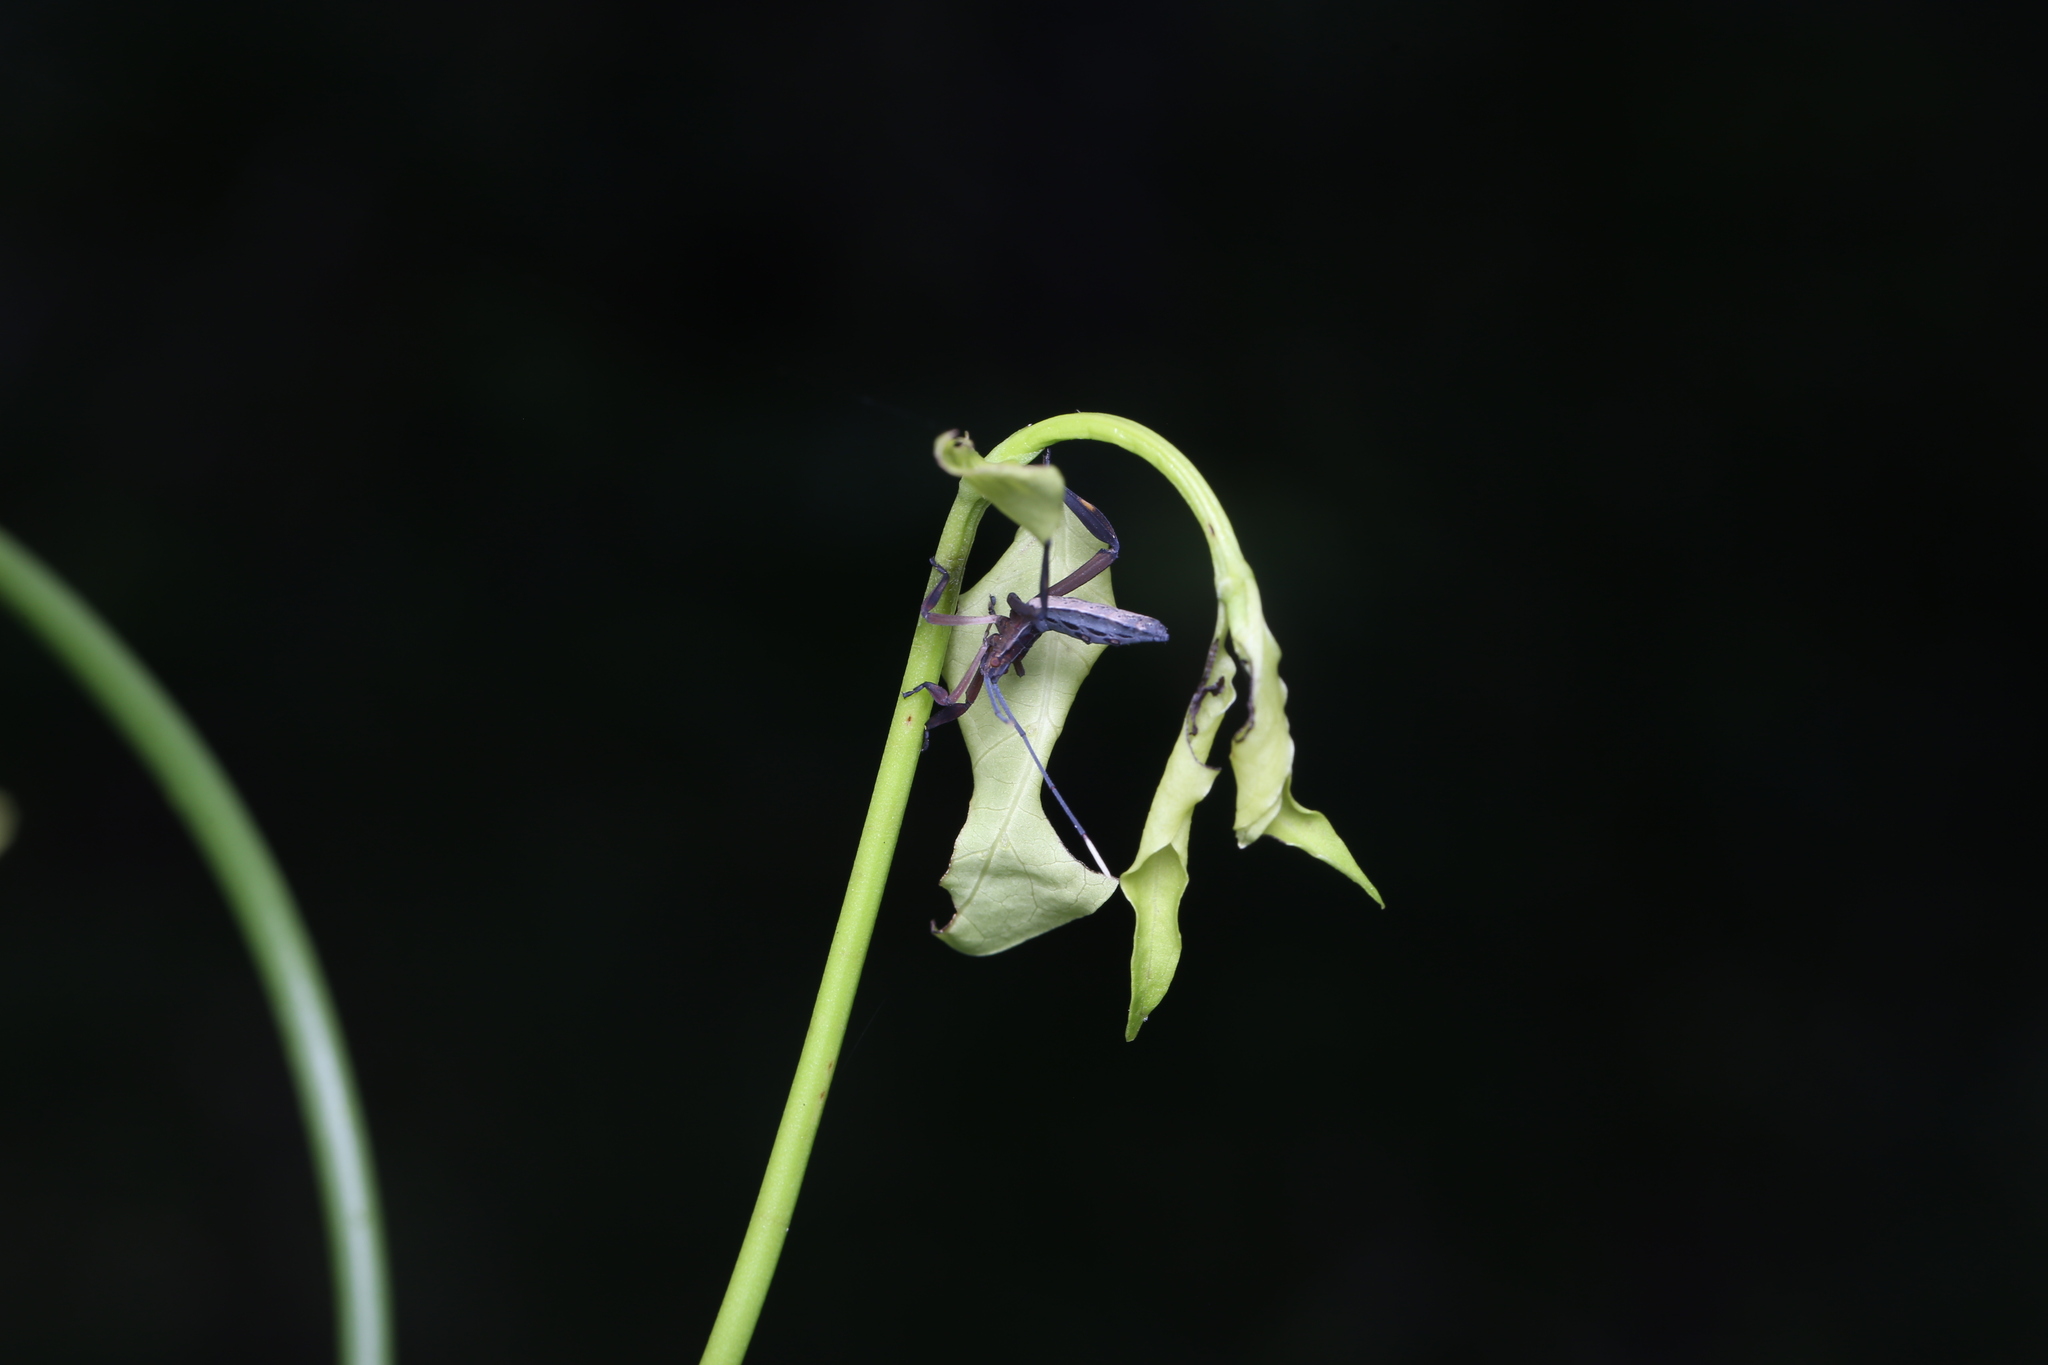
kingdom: Animalia
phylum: Arthropoda
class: Insecta
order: Hemiptera
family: Coreidae
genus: Canungrantmictis
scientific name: Canungrantmictis morindana
